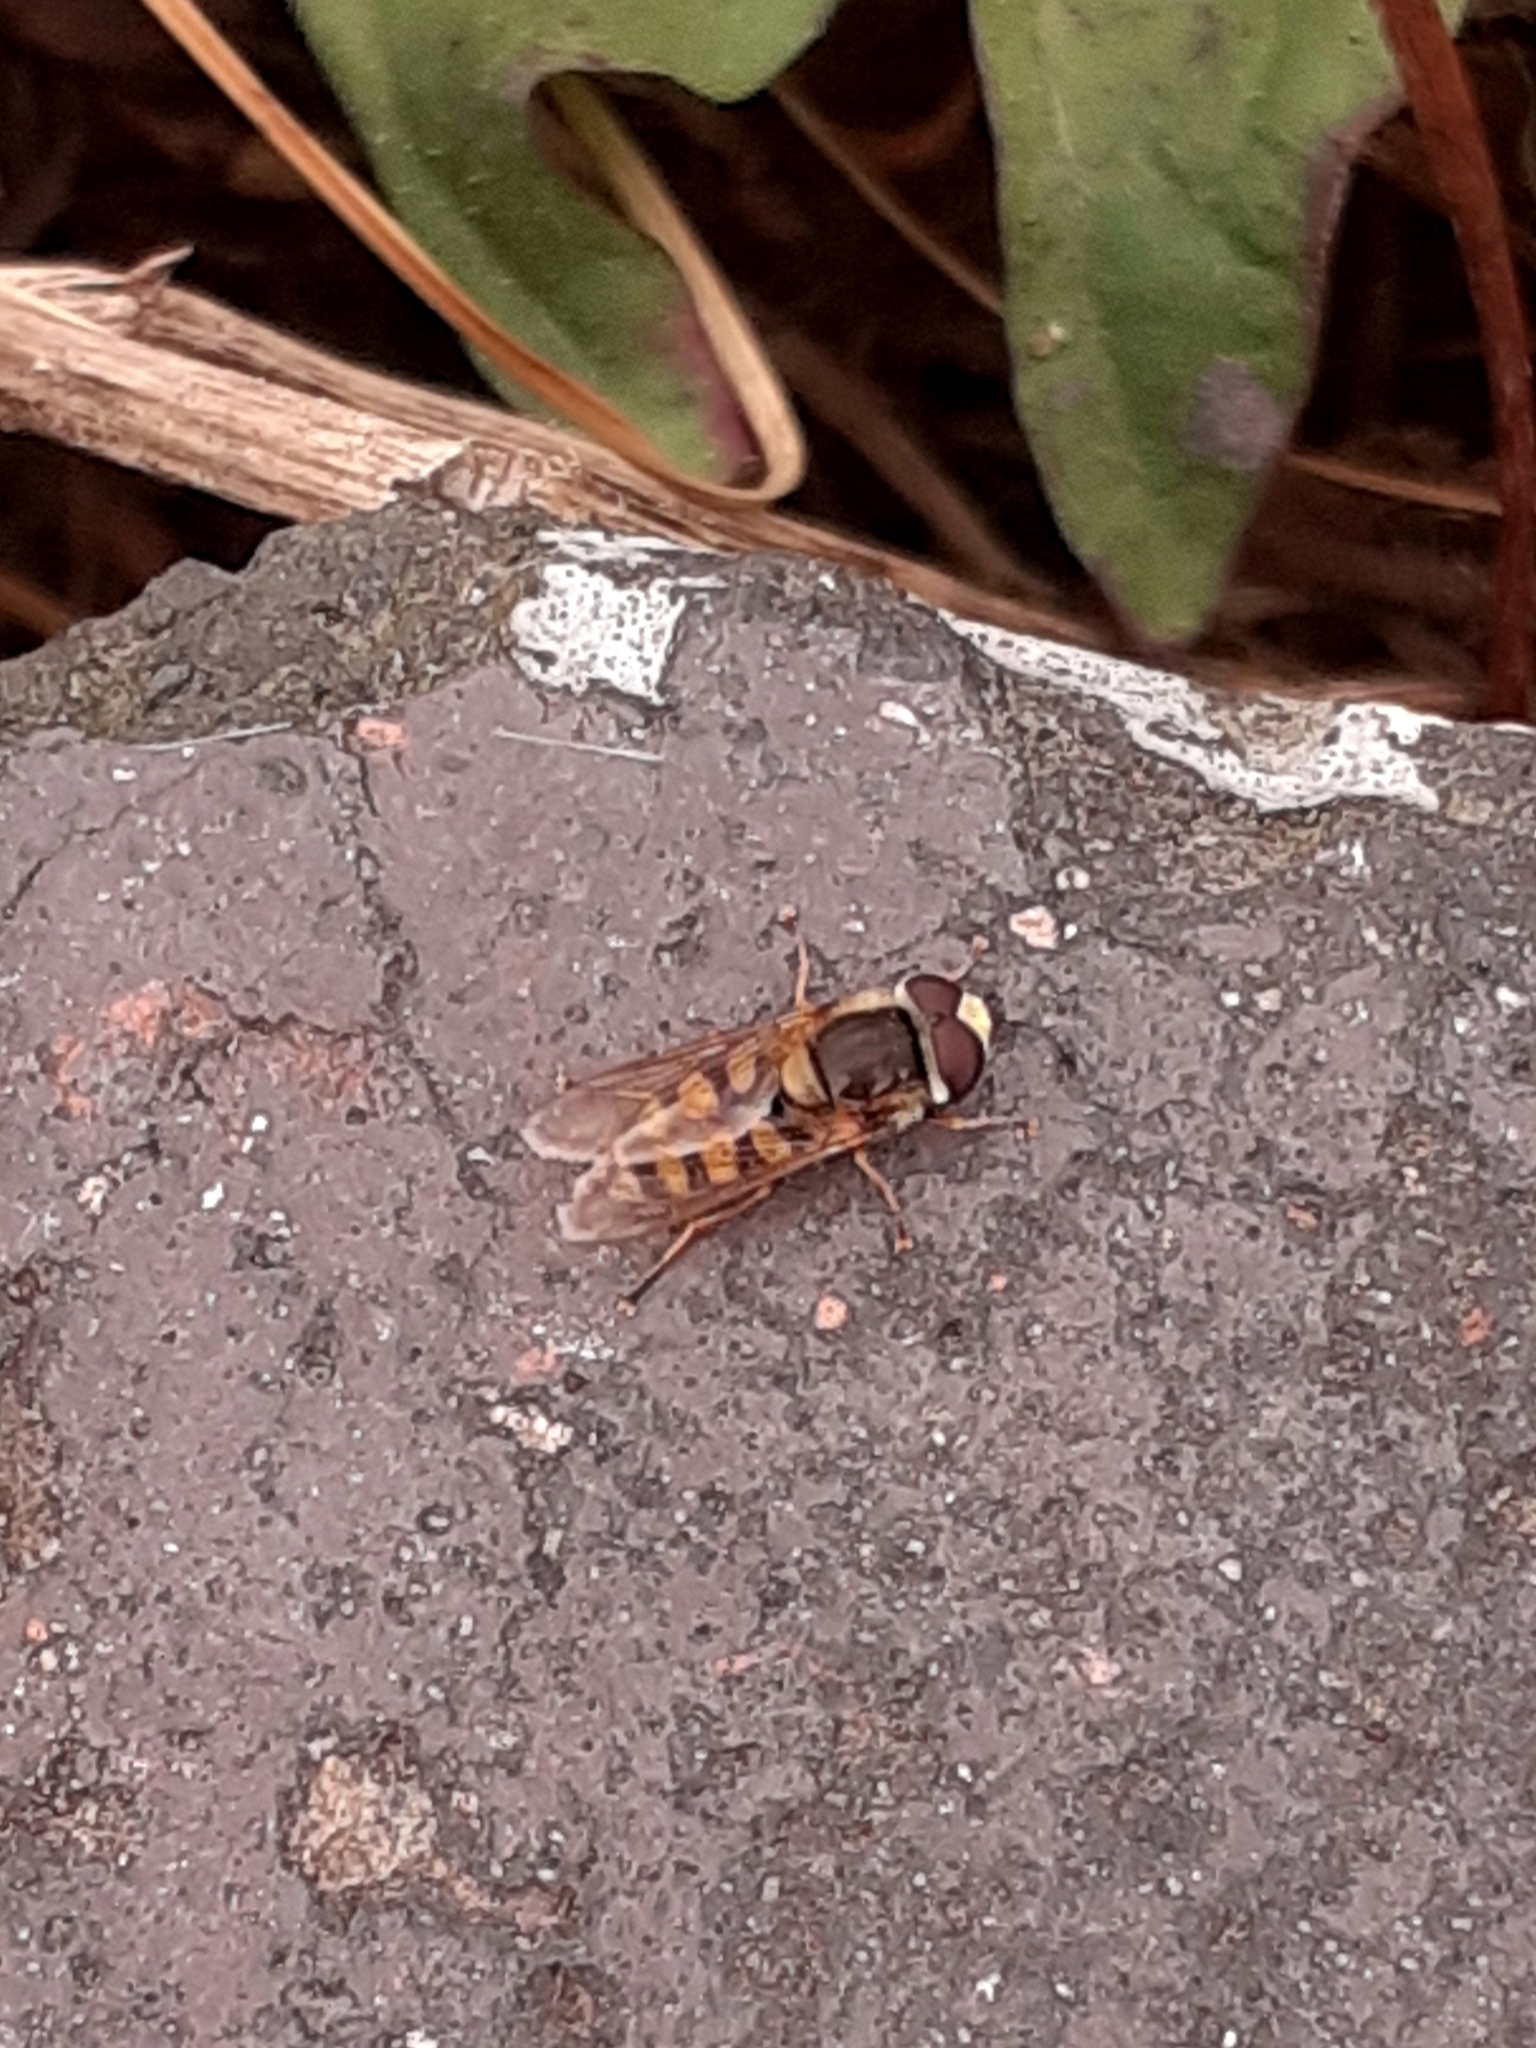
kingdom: Animalia
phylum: Arthropoda
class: Insecta
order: Diptera
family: Syrphidae
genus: Eupeodes
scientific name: Eupeodes corollae
